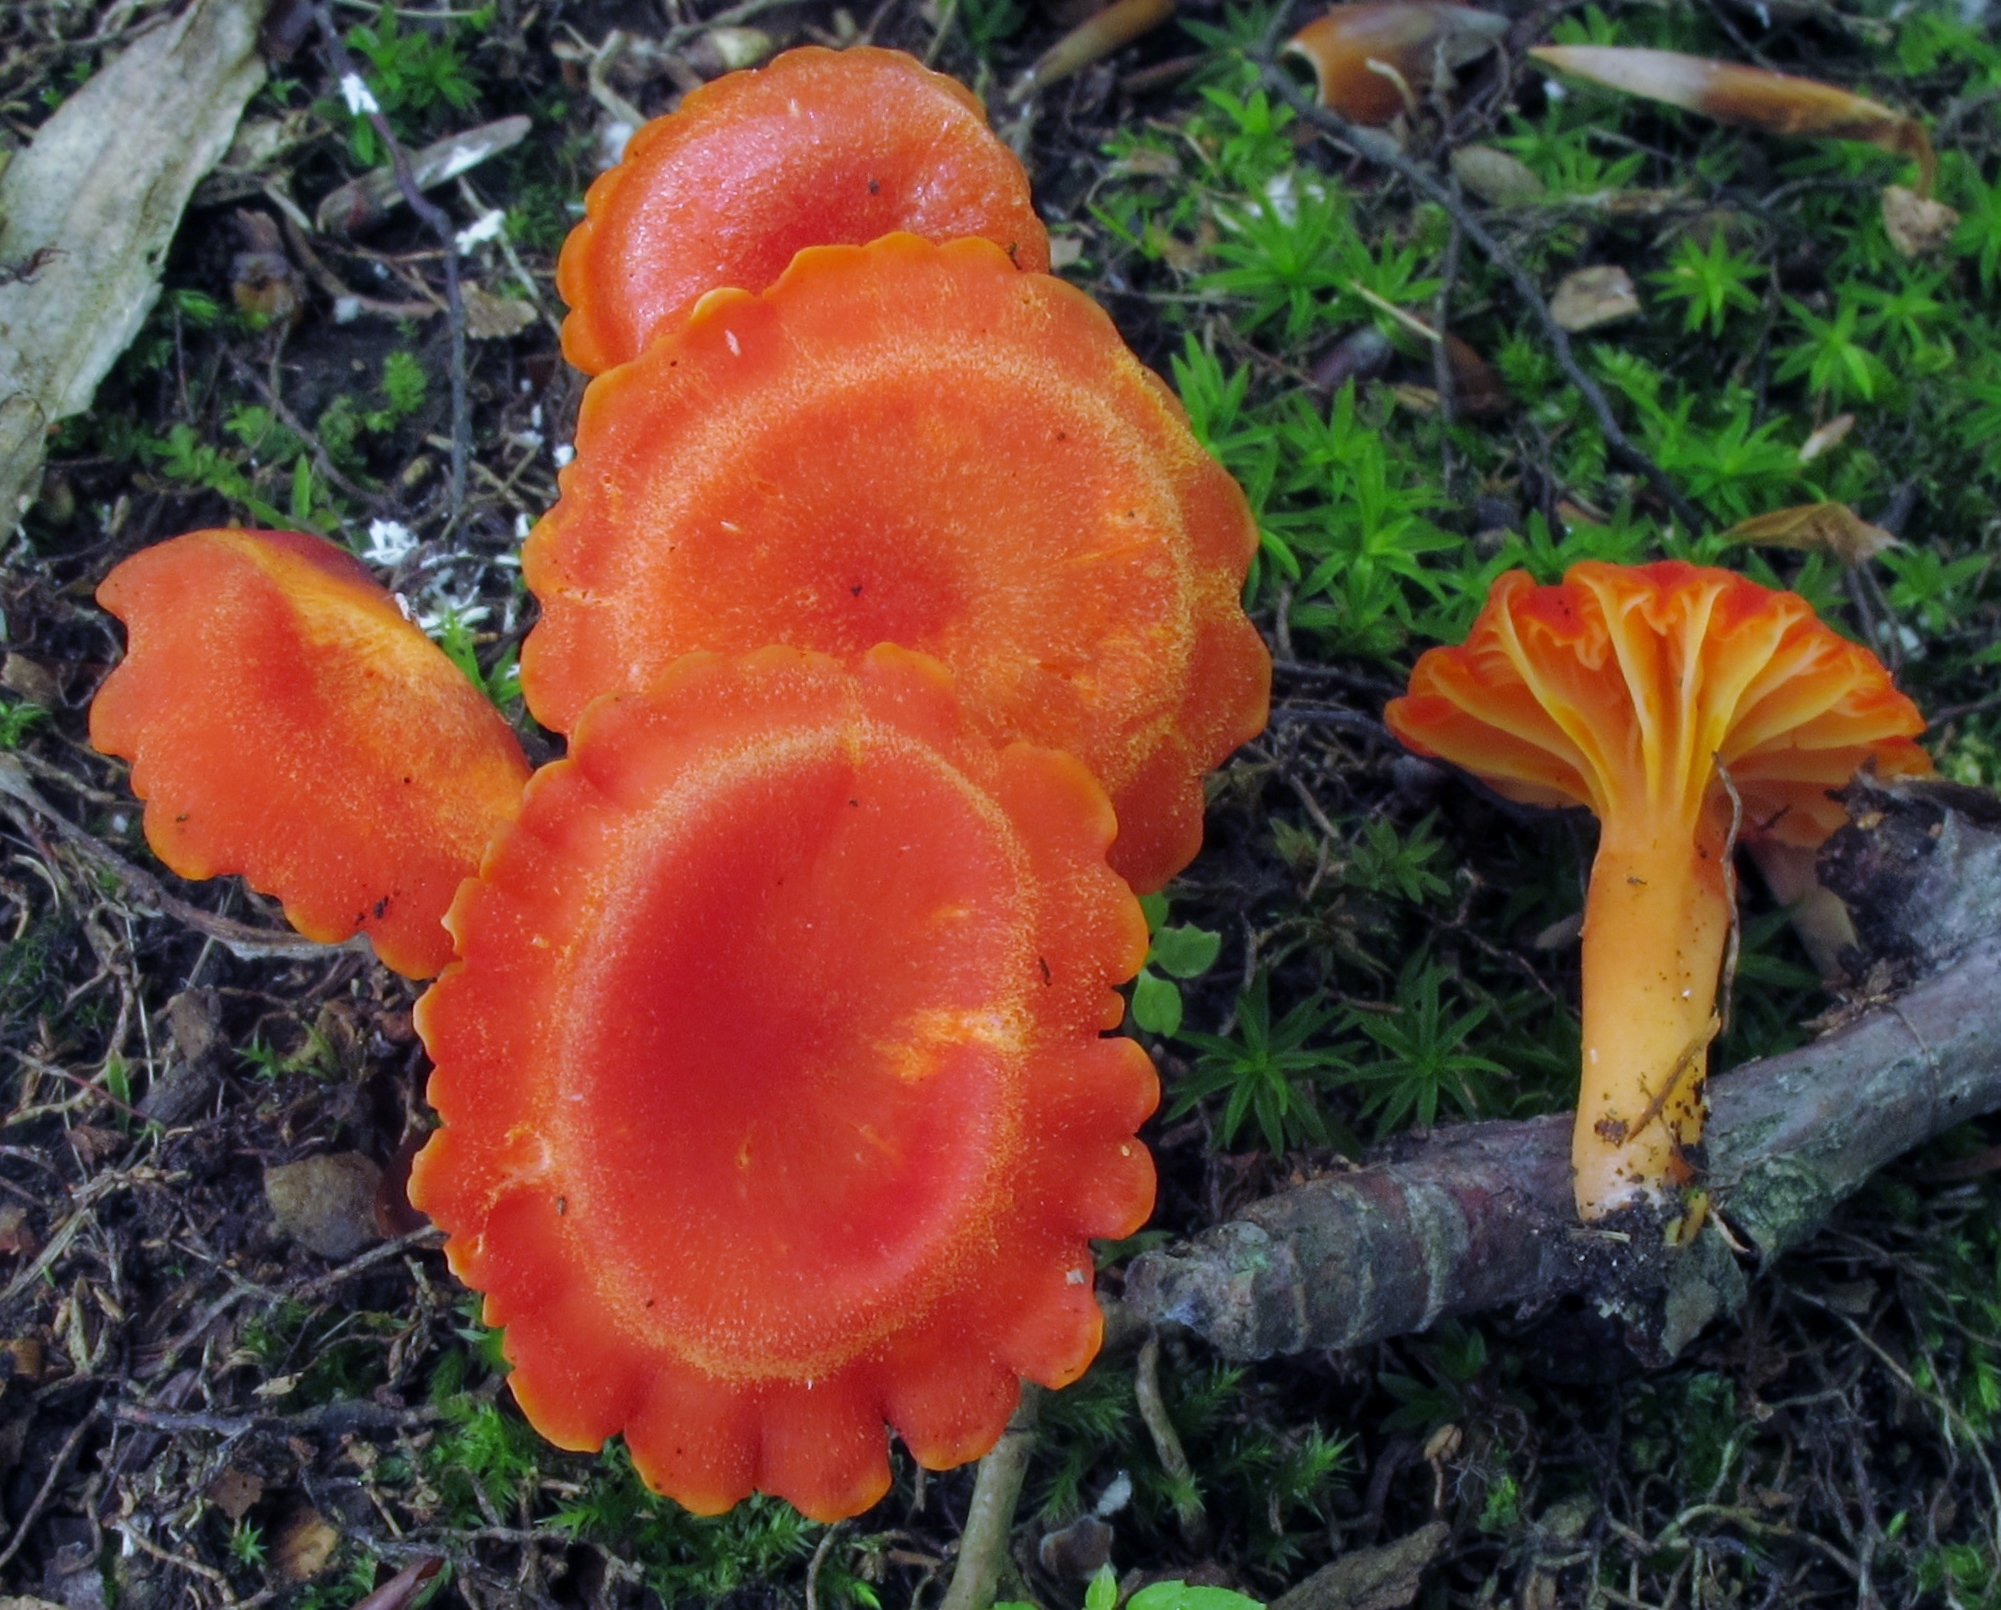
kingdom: Fungi
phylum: Basidiomycota
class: Agaricomycetes
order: Agaricales
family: Hygrophoraceae
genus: Hygrocybe
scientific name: Hygrocybe miniata
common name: Vermilion waxcap
